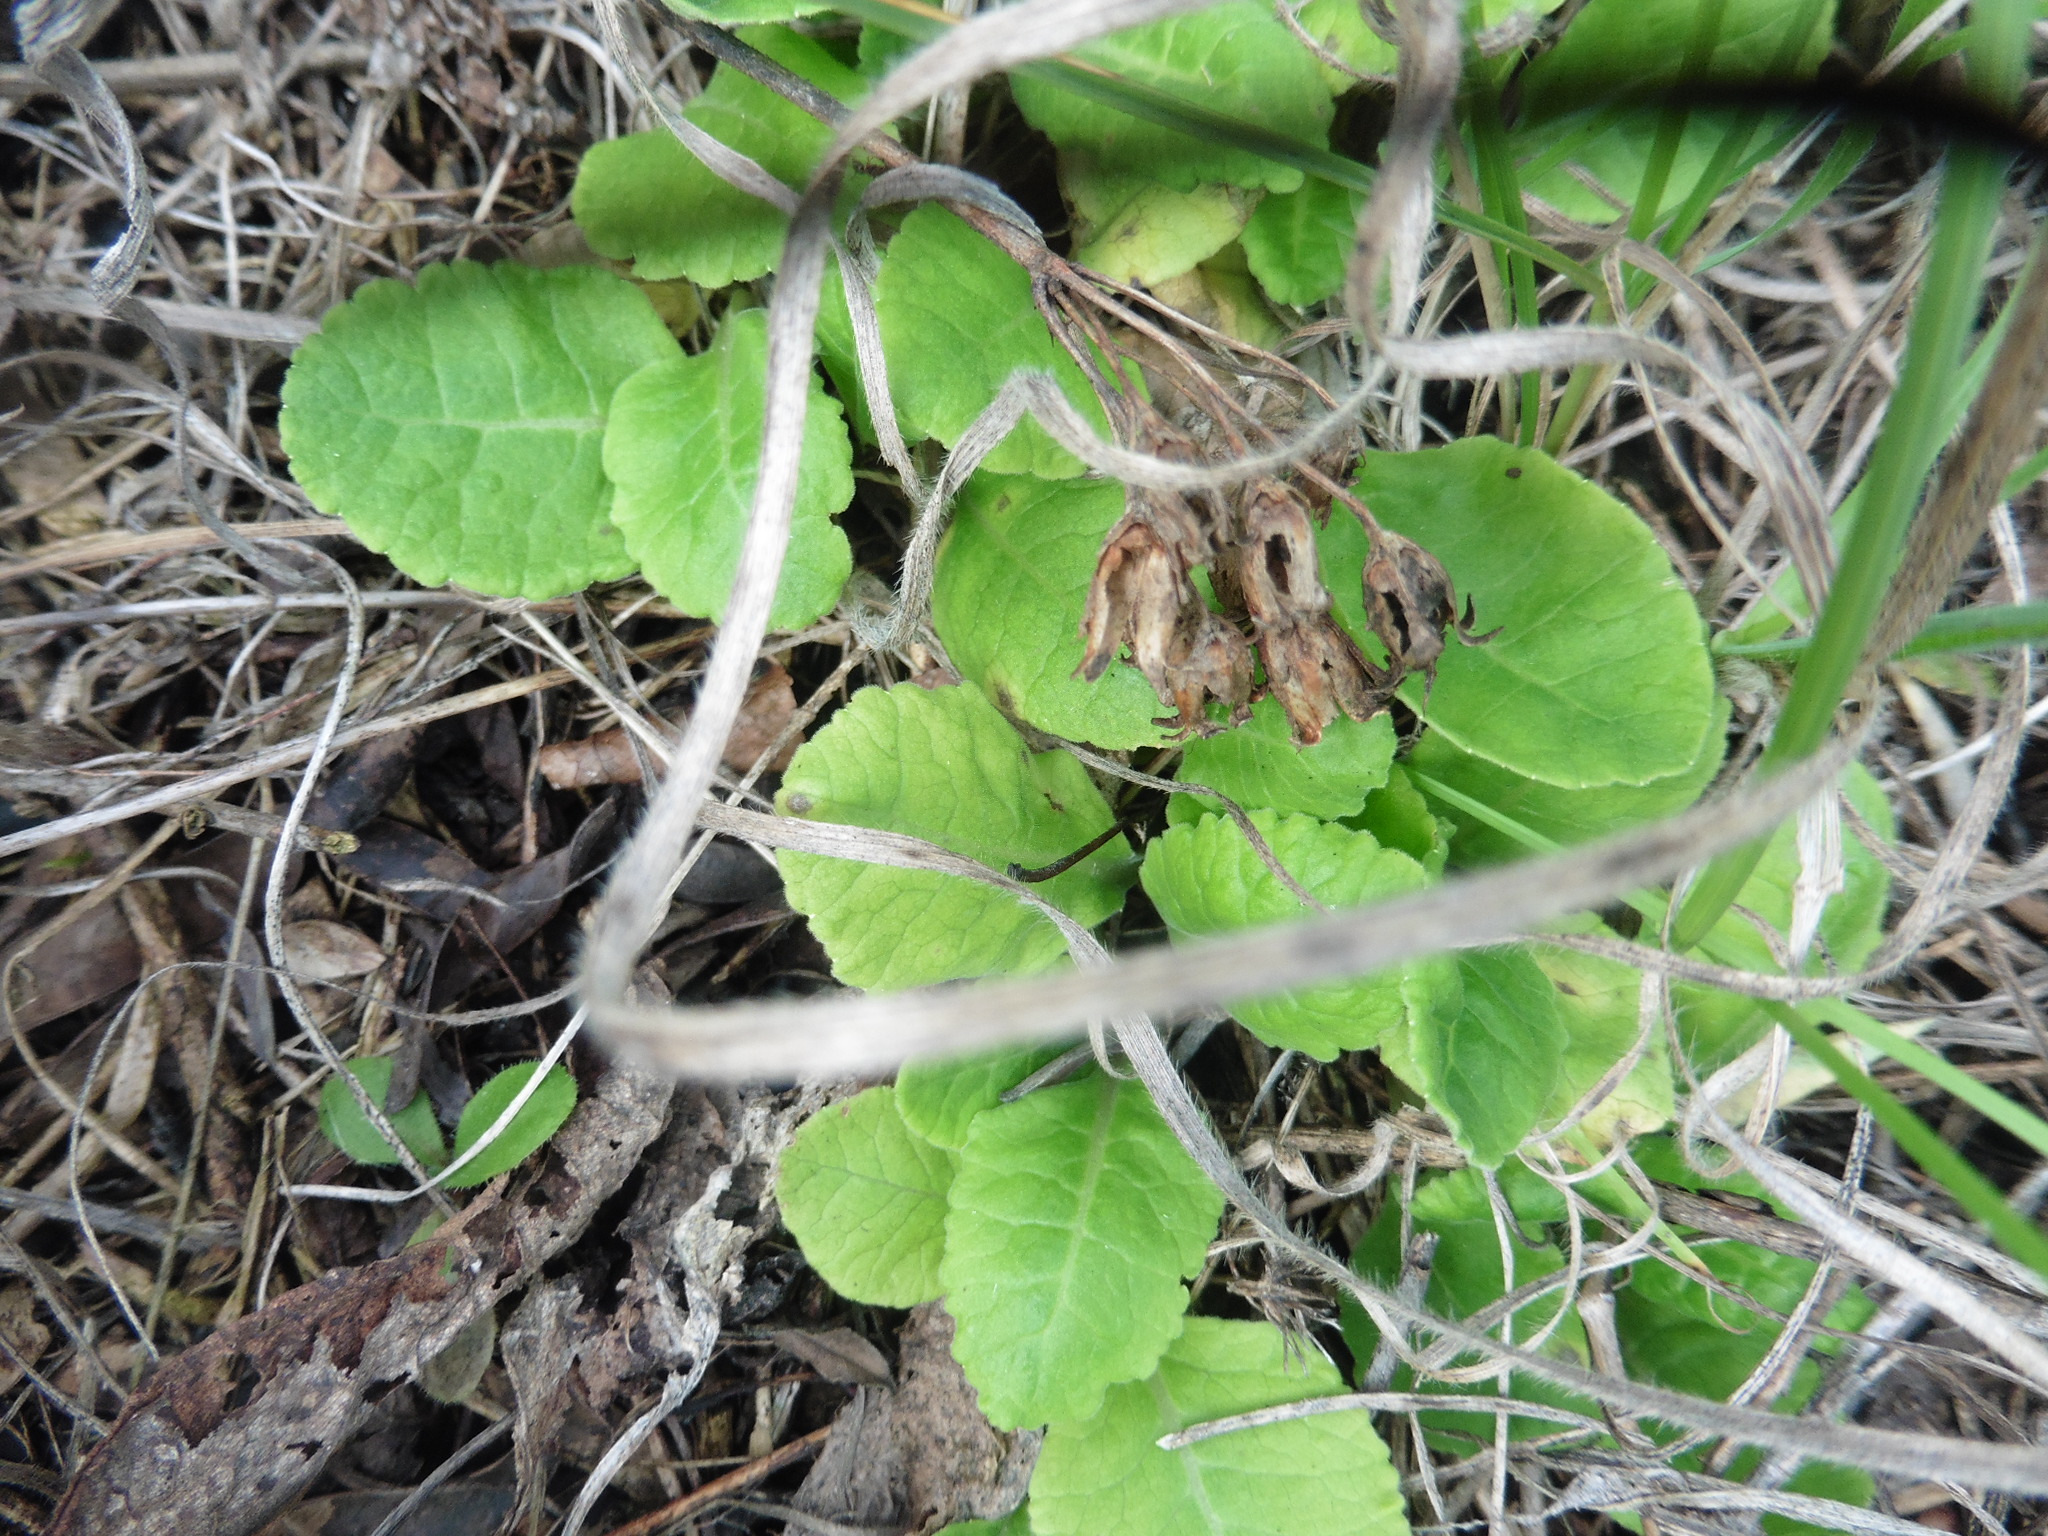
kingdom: Plantae
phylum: Tracheophyta
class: Magnoliopsida
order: Ericales
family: Primulaceae
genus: Primula
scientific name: Primula veris
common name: Cowslip
